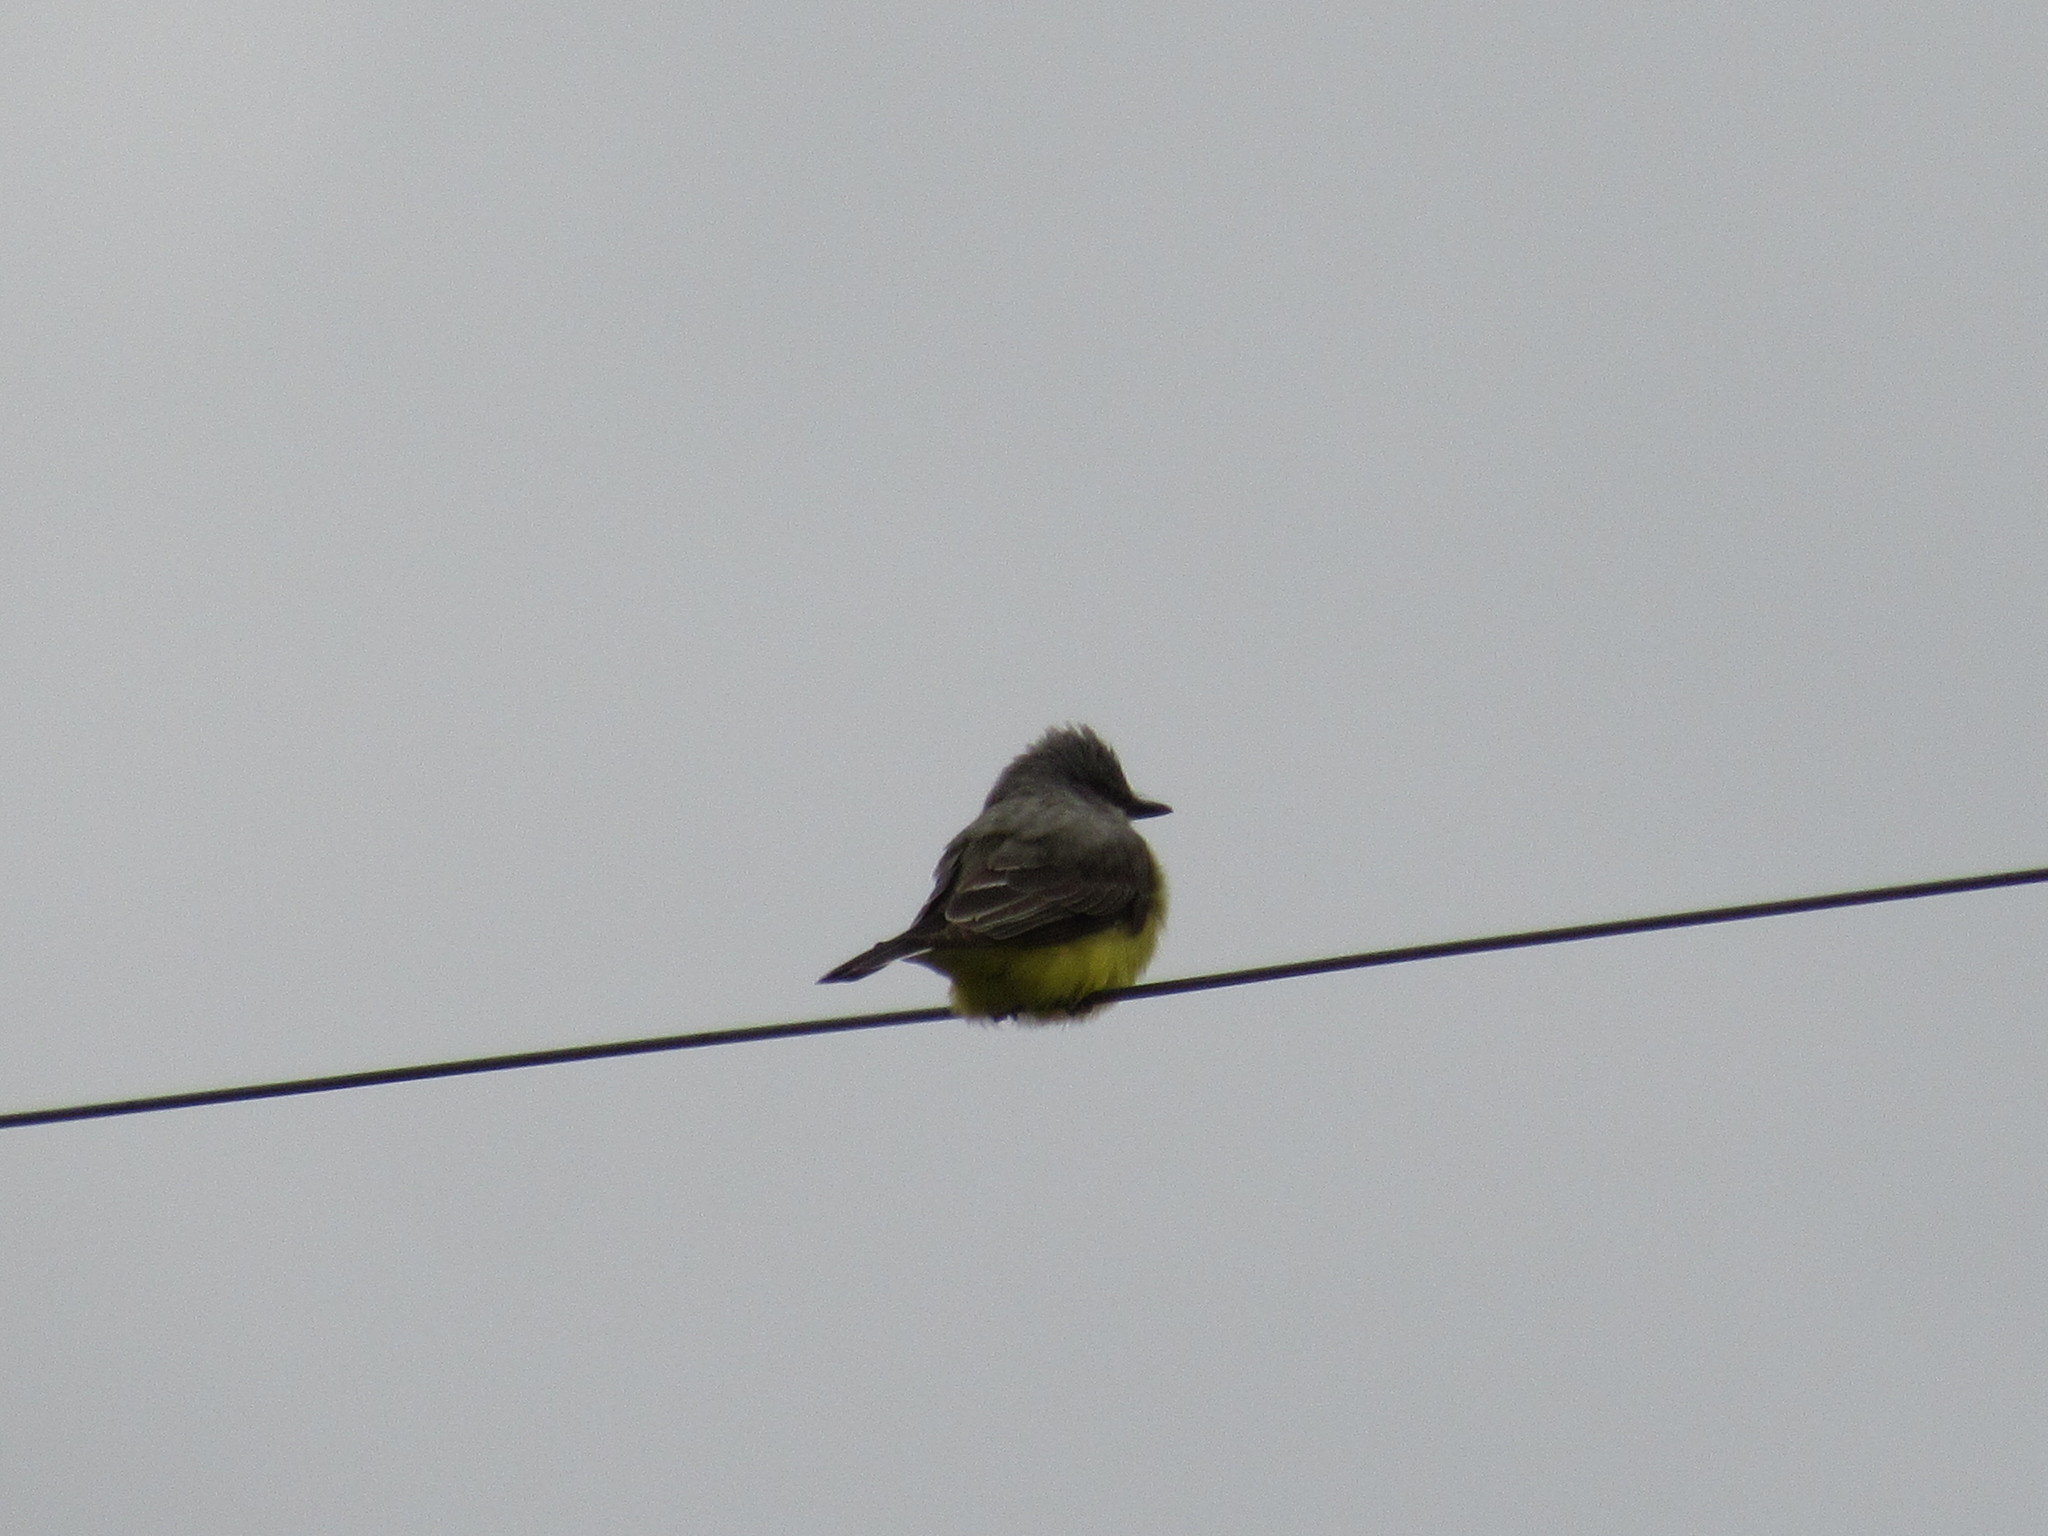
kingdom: Animalia
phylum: Chordata
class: Aves
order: Passeriformes
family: Tyrannidae
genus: Tyrannus
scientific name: Tyrannus verticalis
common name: Western kingbird
